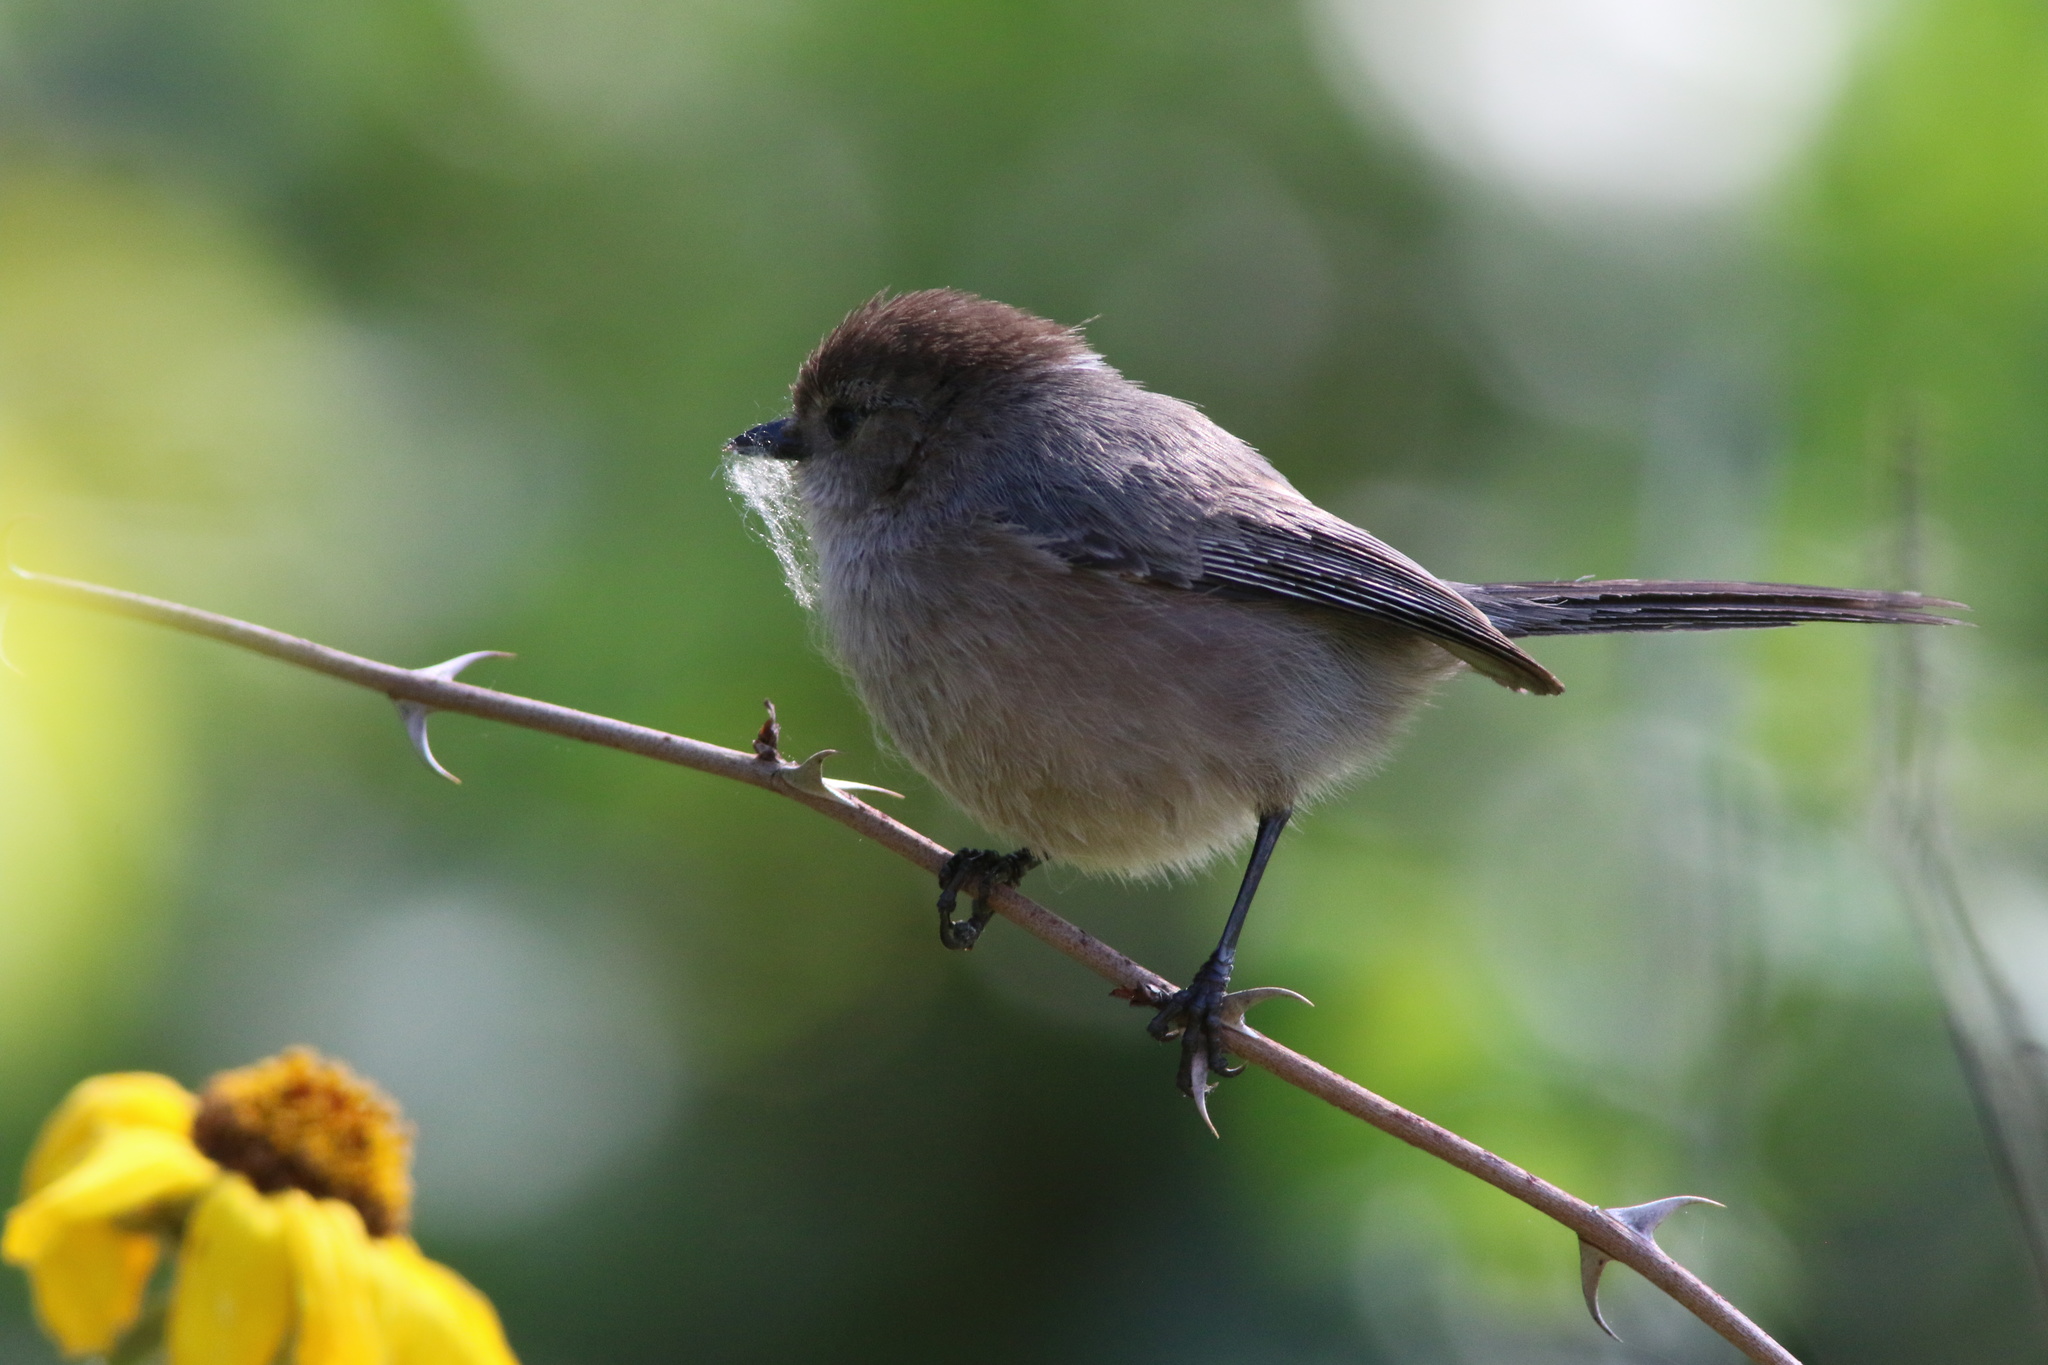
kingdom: Animalia
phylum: Chordata
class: Aves
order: Passeriformes
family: Aegithalidae
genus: Psaltriparus
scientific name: Psaltriparus minimus
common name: American bushtit
